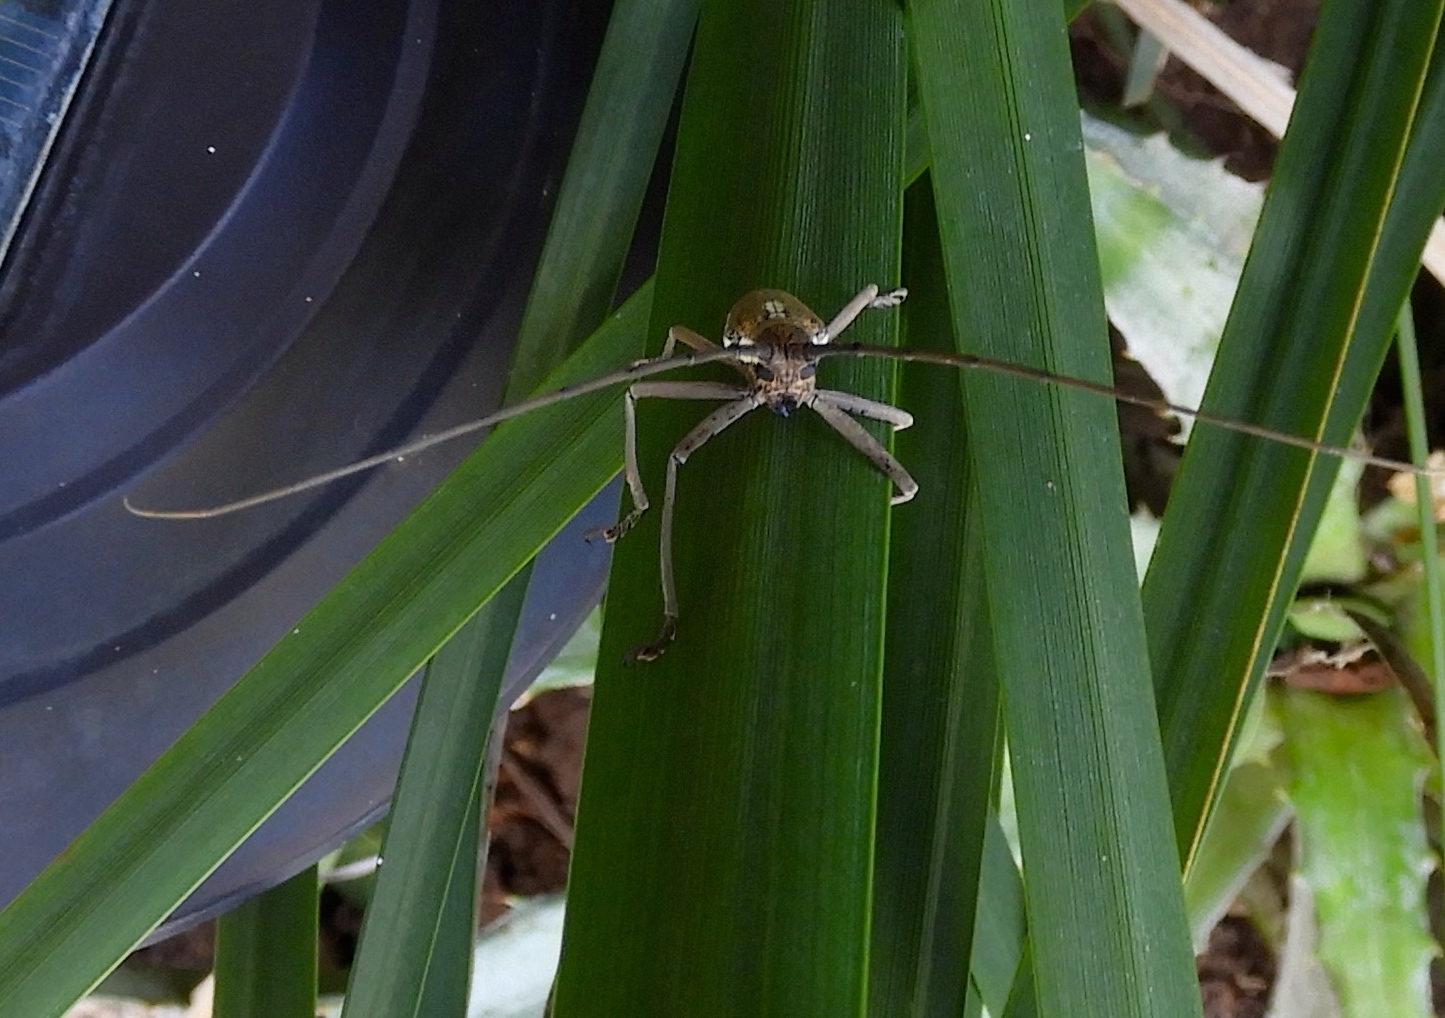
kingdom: Animalia
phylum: Arthropoda
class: Insecta
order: Coleoptera
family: Cerambycidae
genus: Neoptychodes
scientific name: Neoptychodes trilineatus
